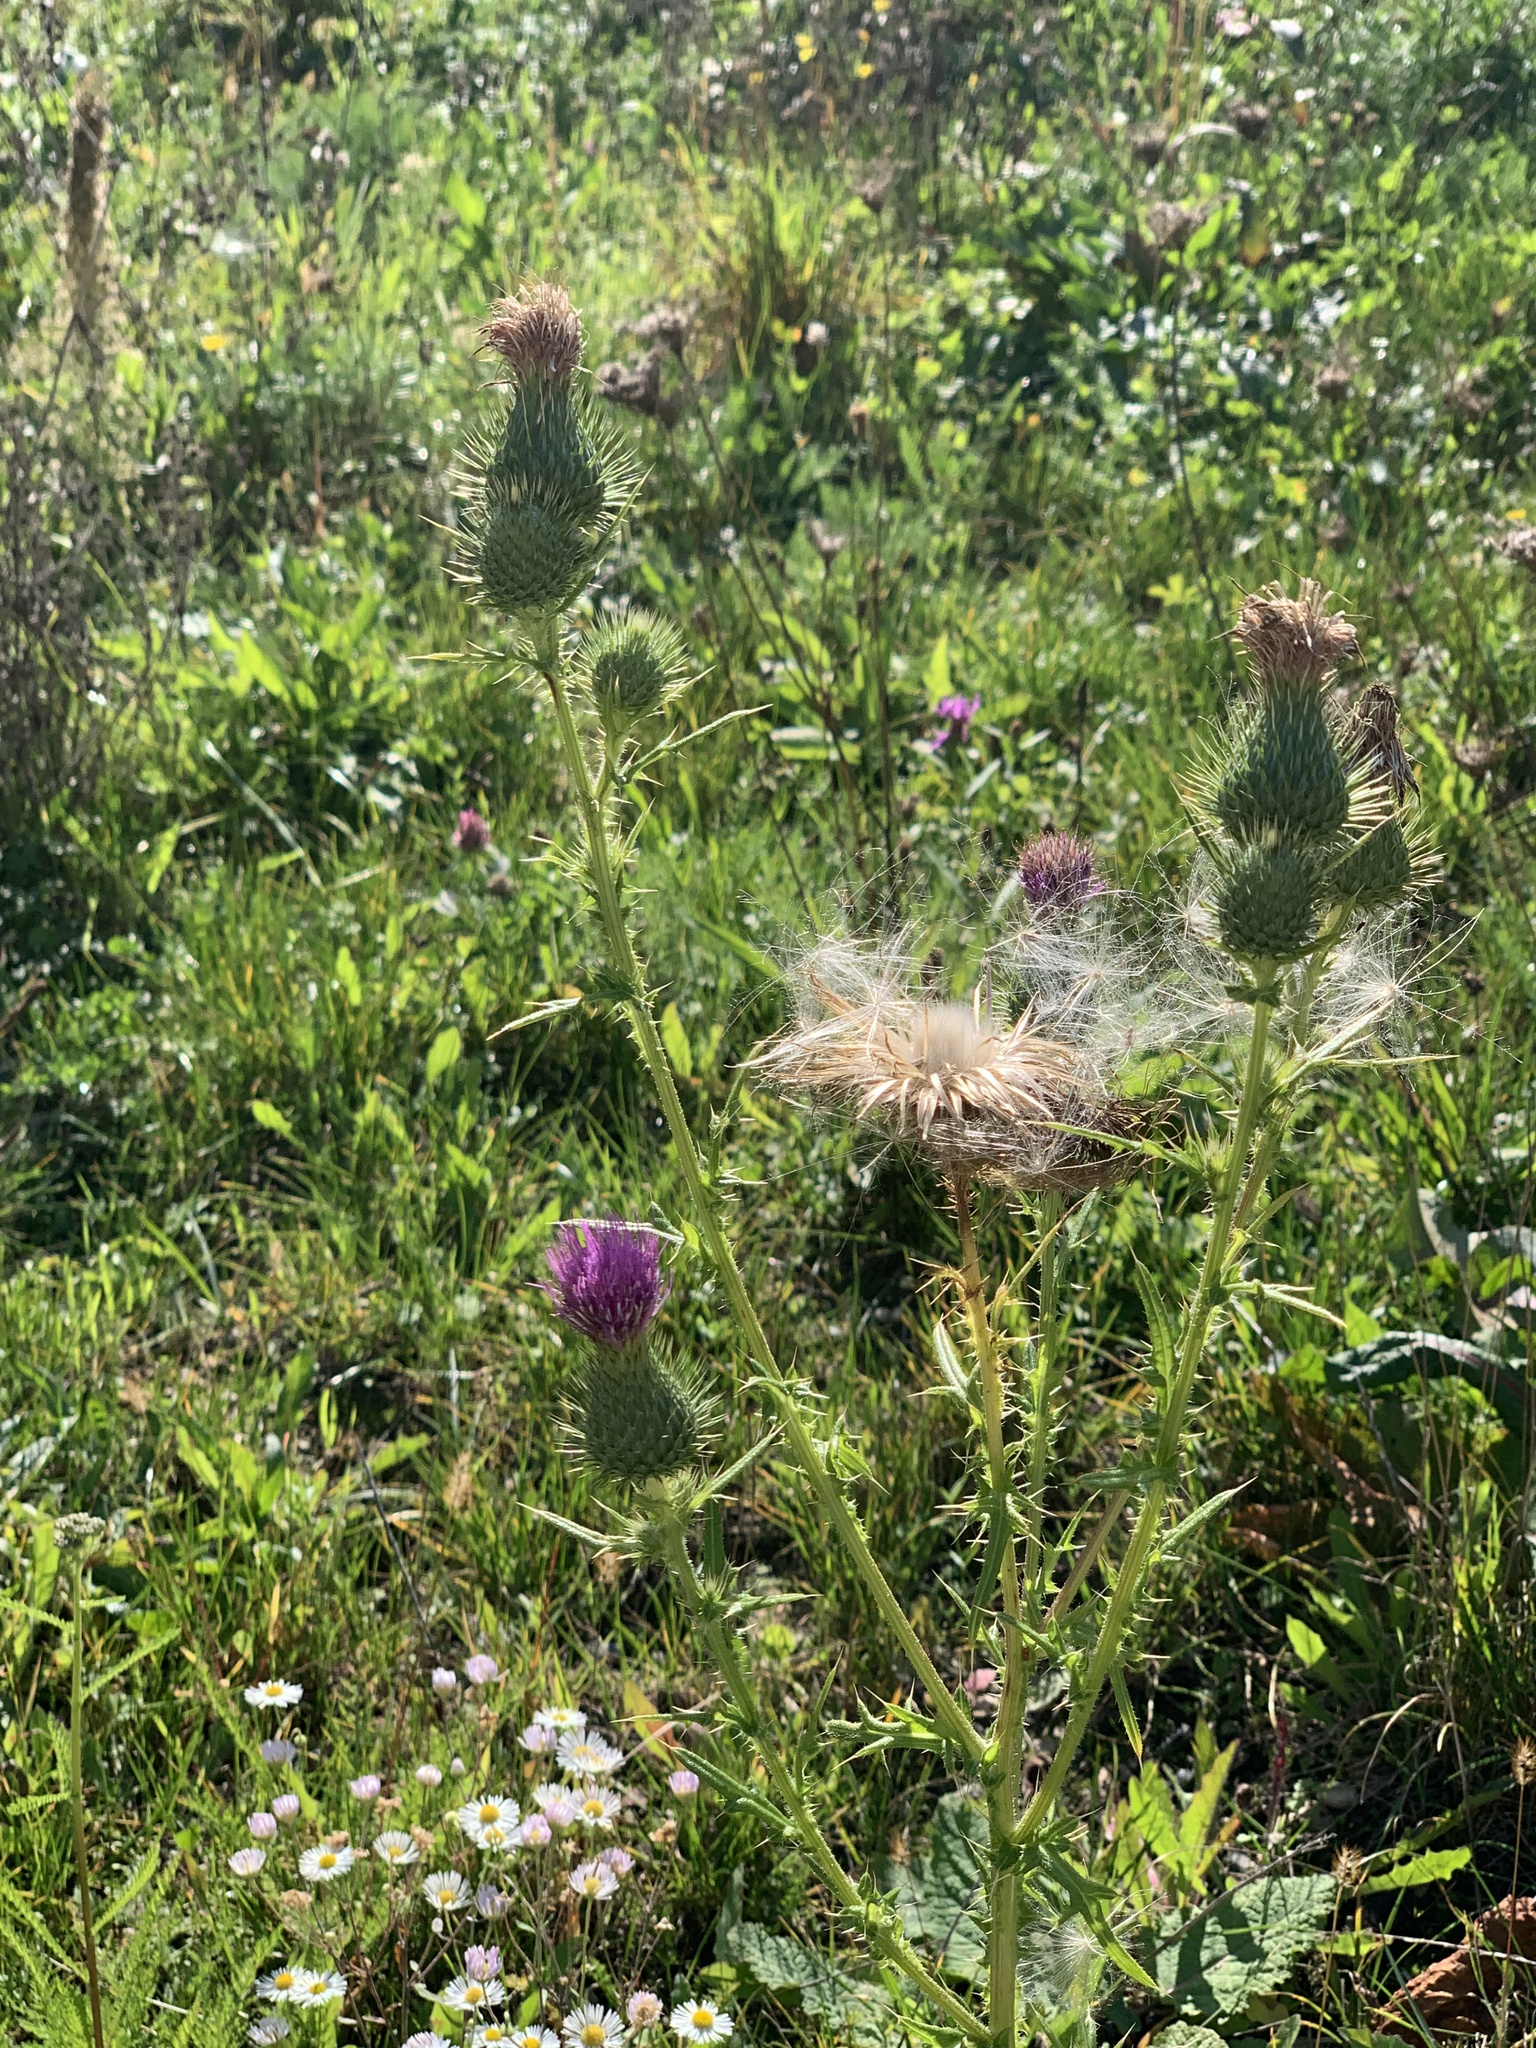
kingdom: Plantae
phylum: Tracheophyta
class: Magnoliopsida
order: Asterales
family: Asteraceae
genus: Cirsium
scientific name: Cirsium vulgare
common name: Bull thistle
